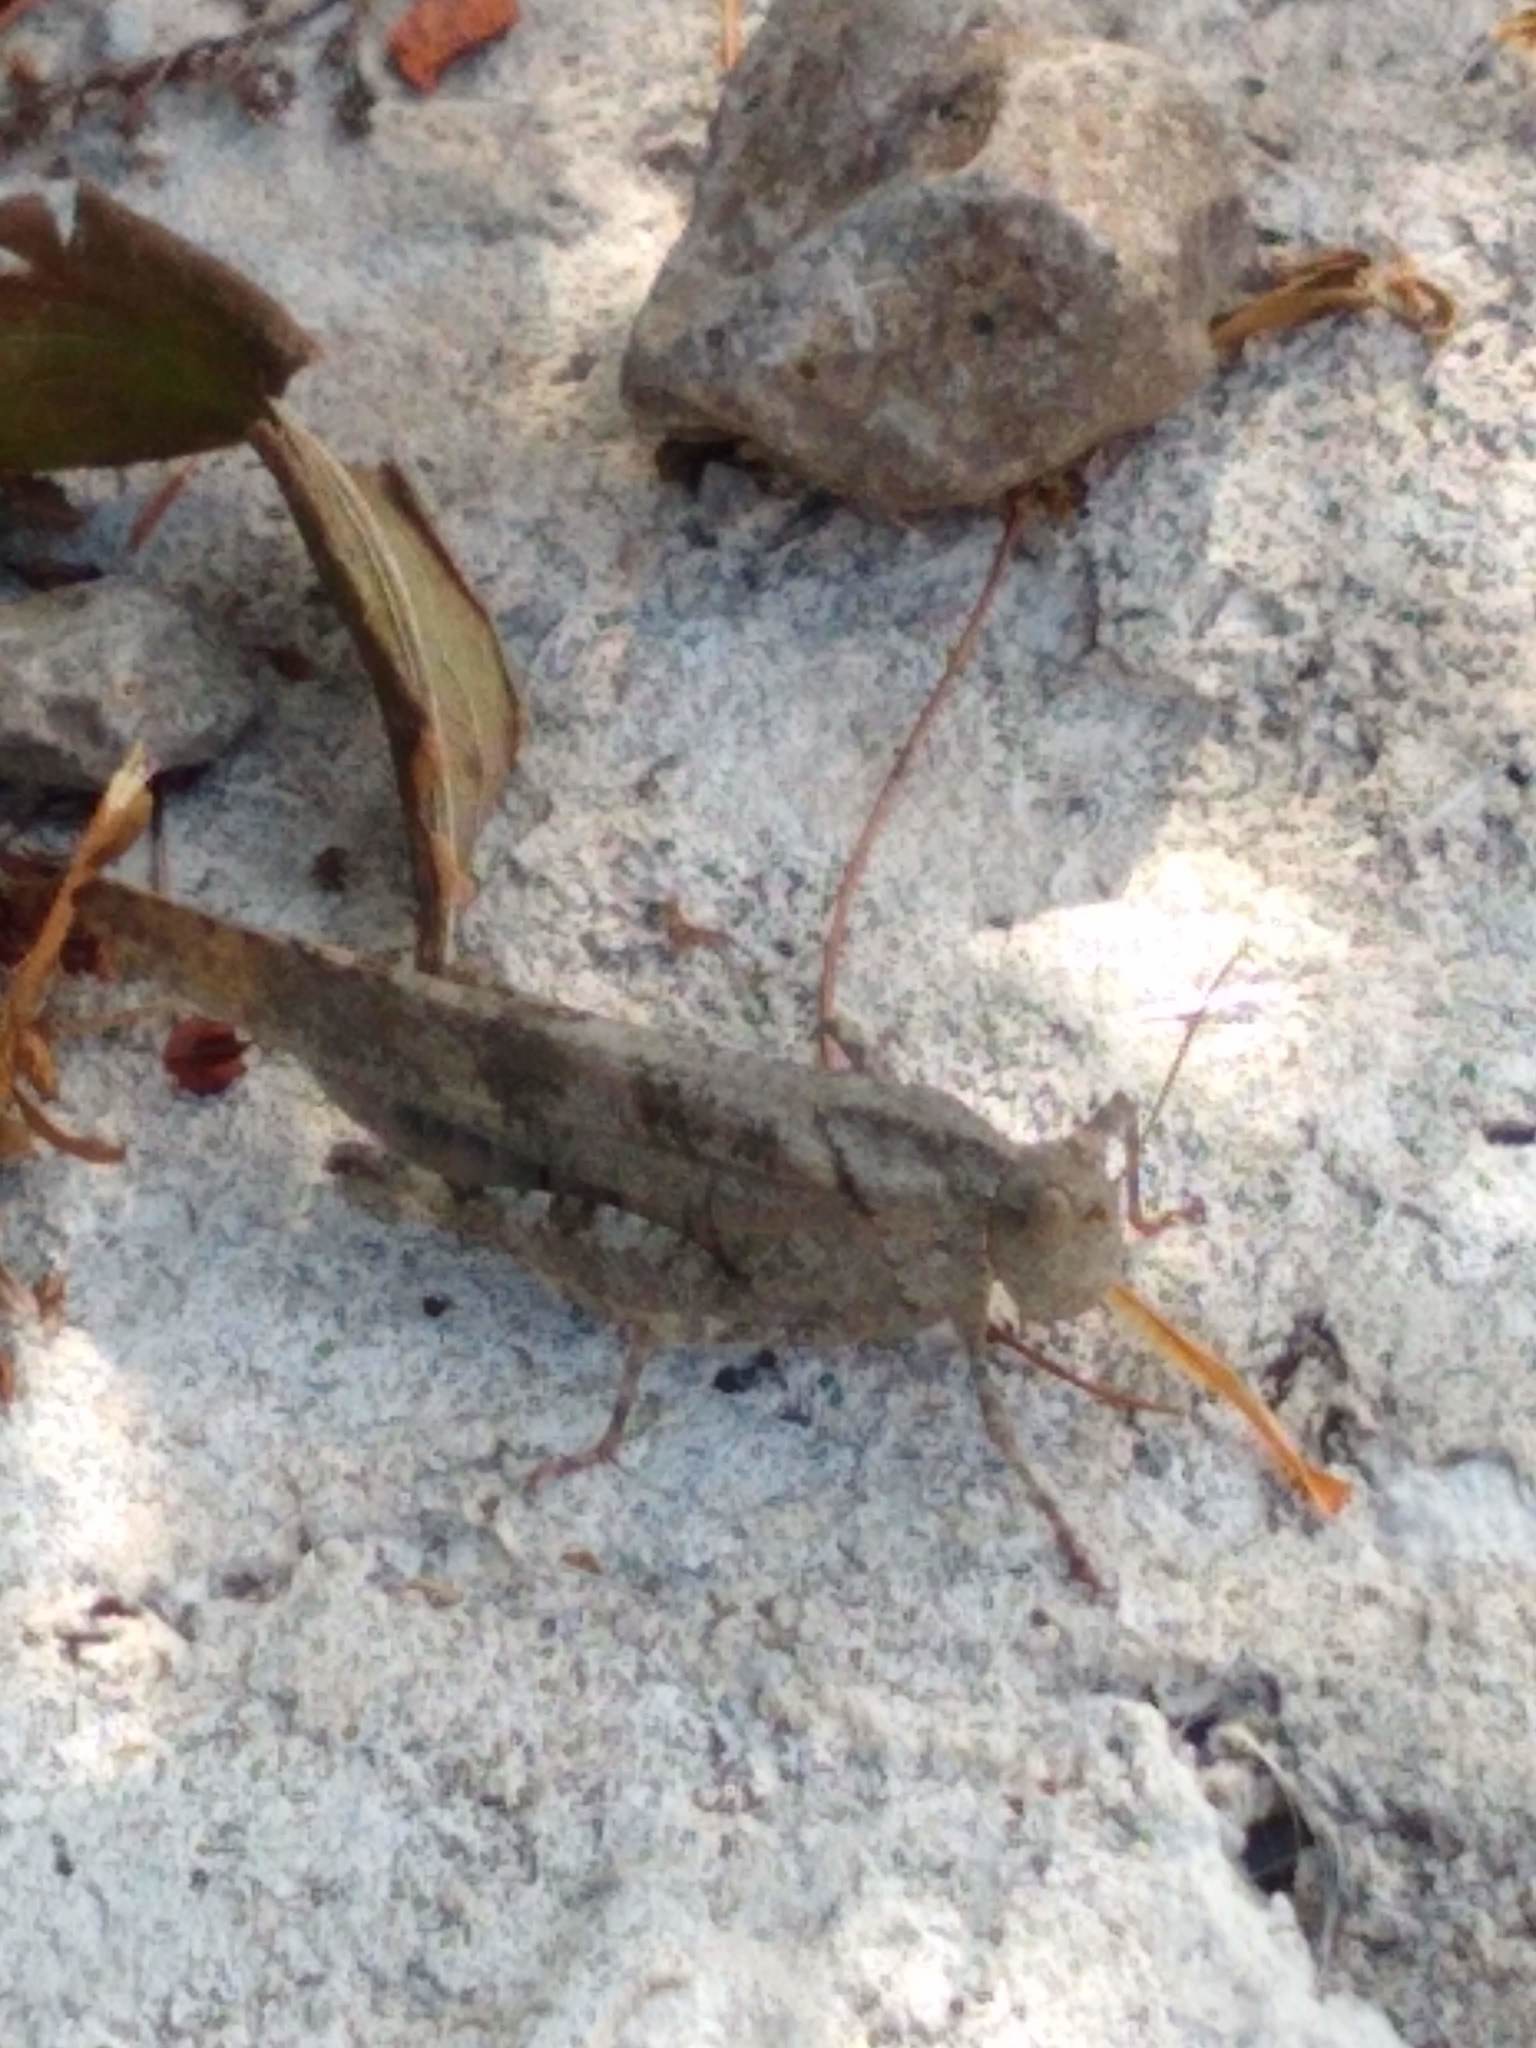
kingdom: Animalia
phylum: Arthropoda
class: Insecta
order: Orthoptera
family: Acrididae
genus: Dissosteira
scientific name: Dissosteira carolina
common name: Carolina grasshopper
